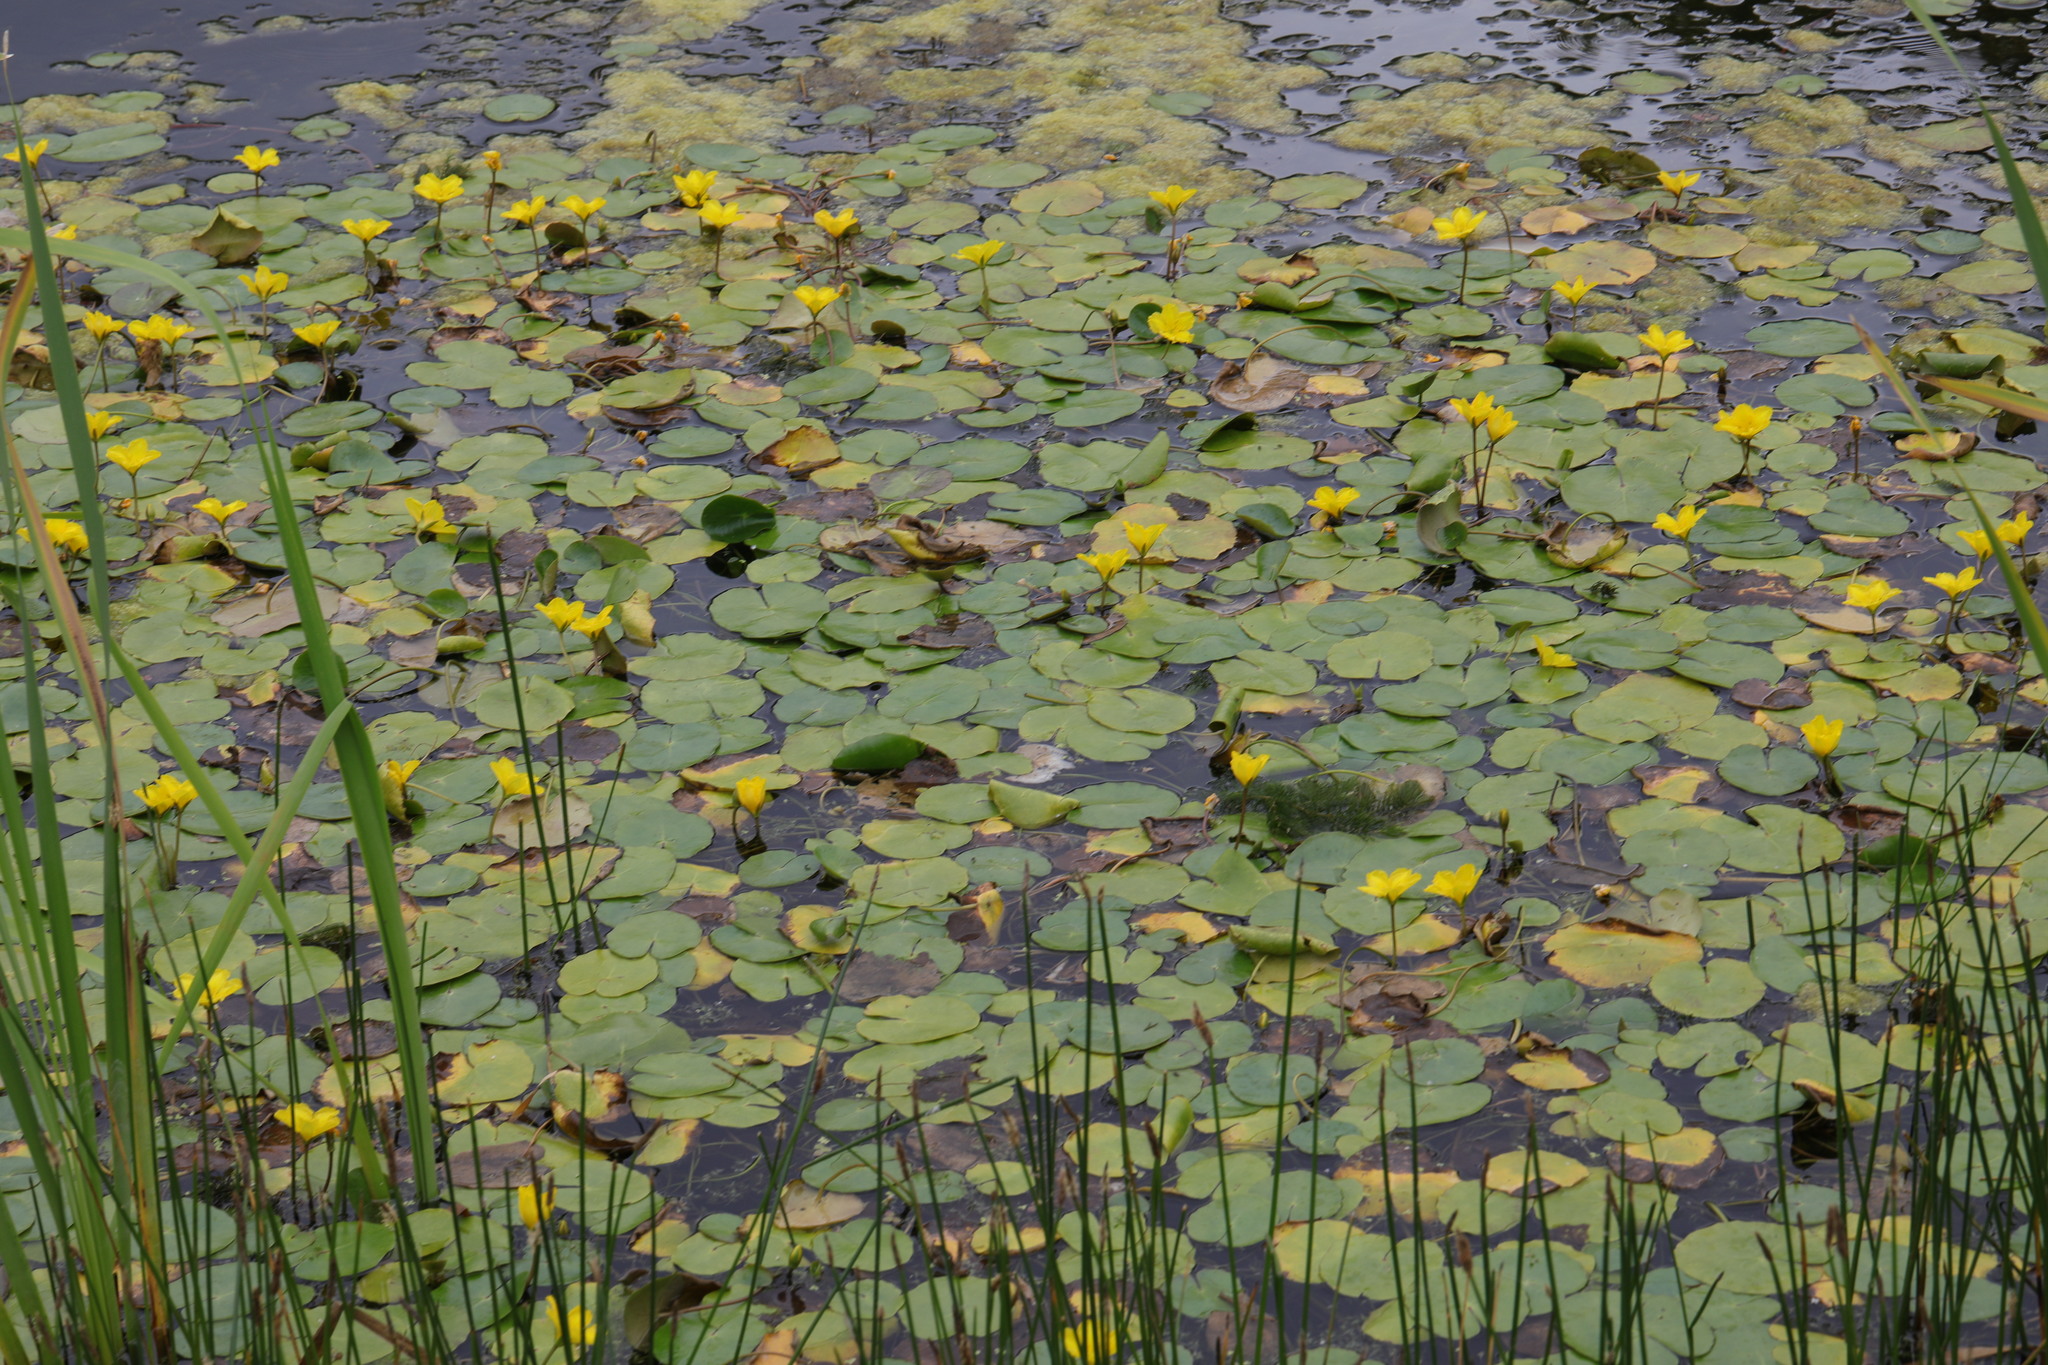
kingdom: Plantae
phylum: Tracheophyta
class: Magnoliopsida
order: Asterales
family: Menyanthaceae
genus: Nymphoides
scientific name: Nymphoides peltata
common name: Fringed water-lily
